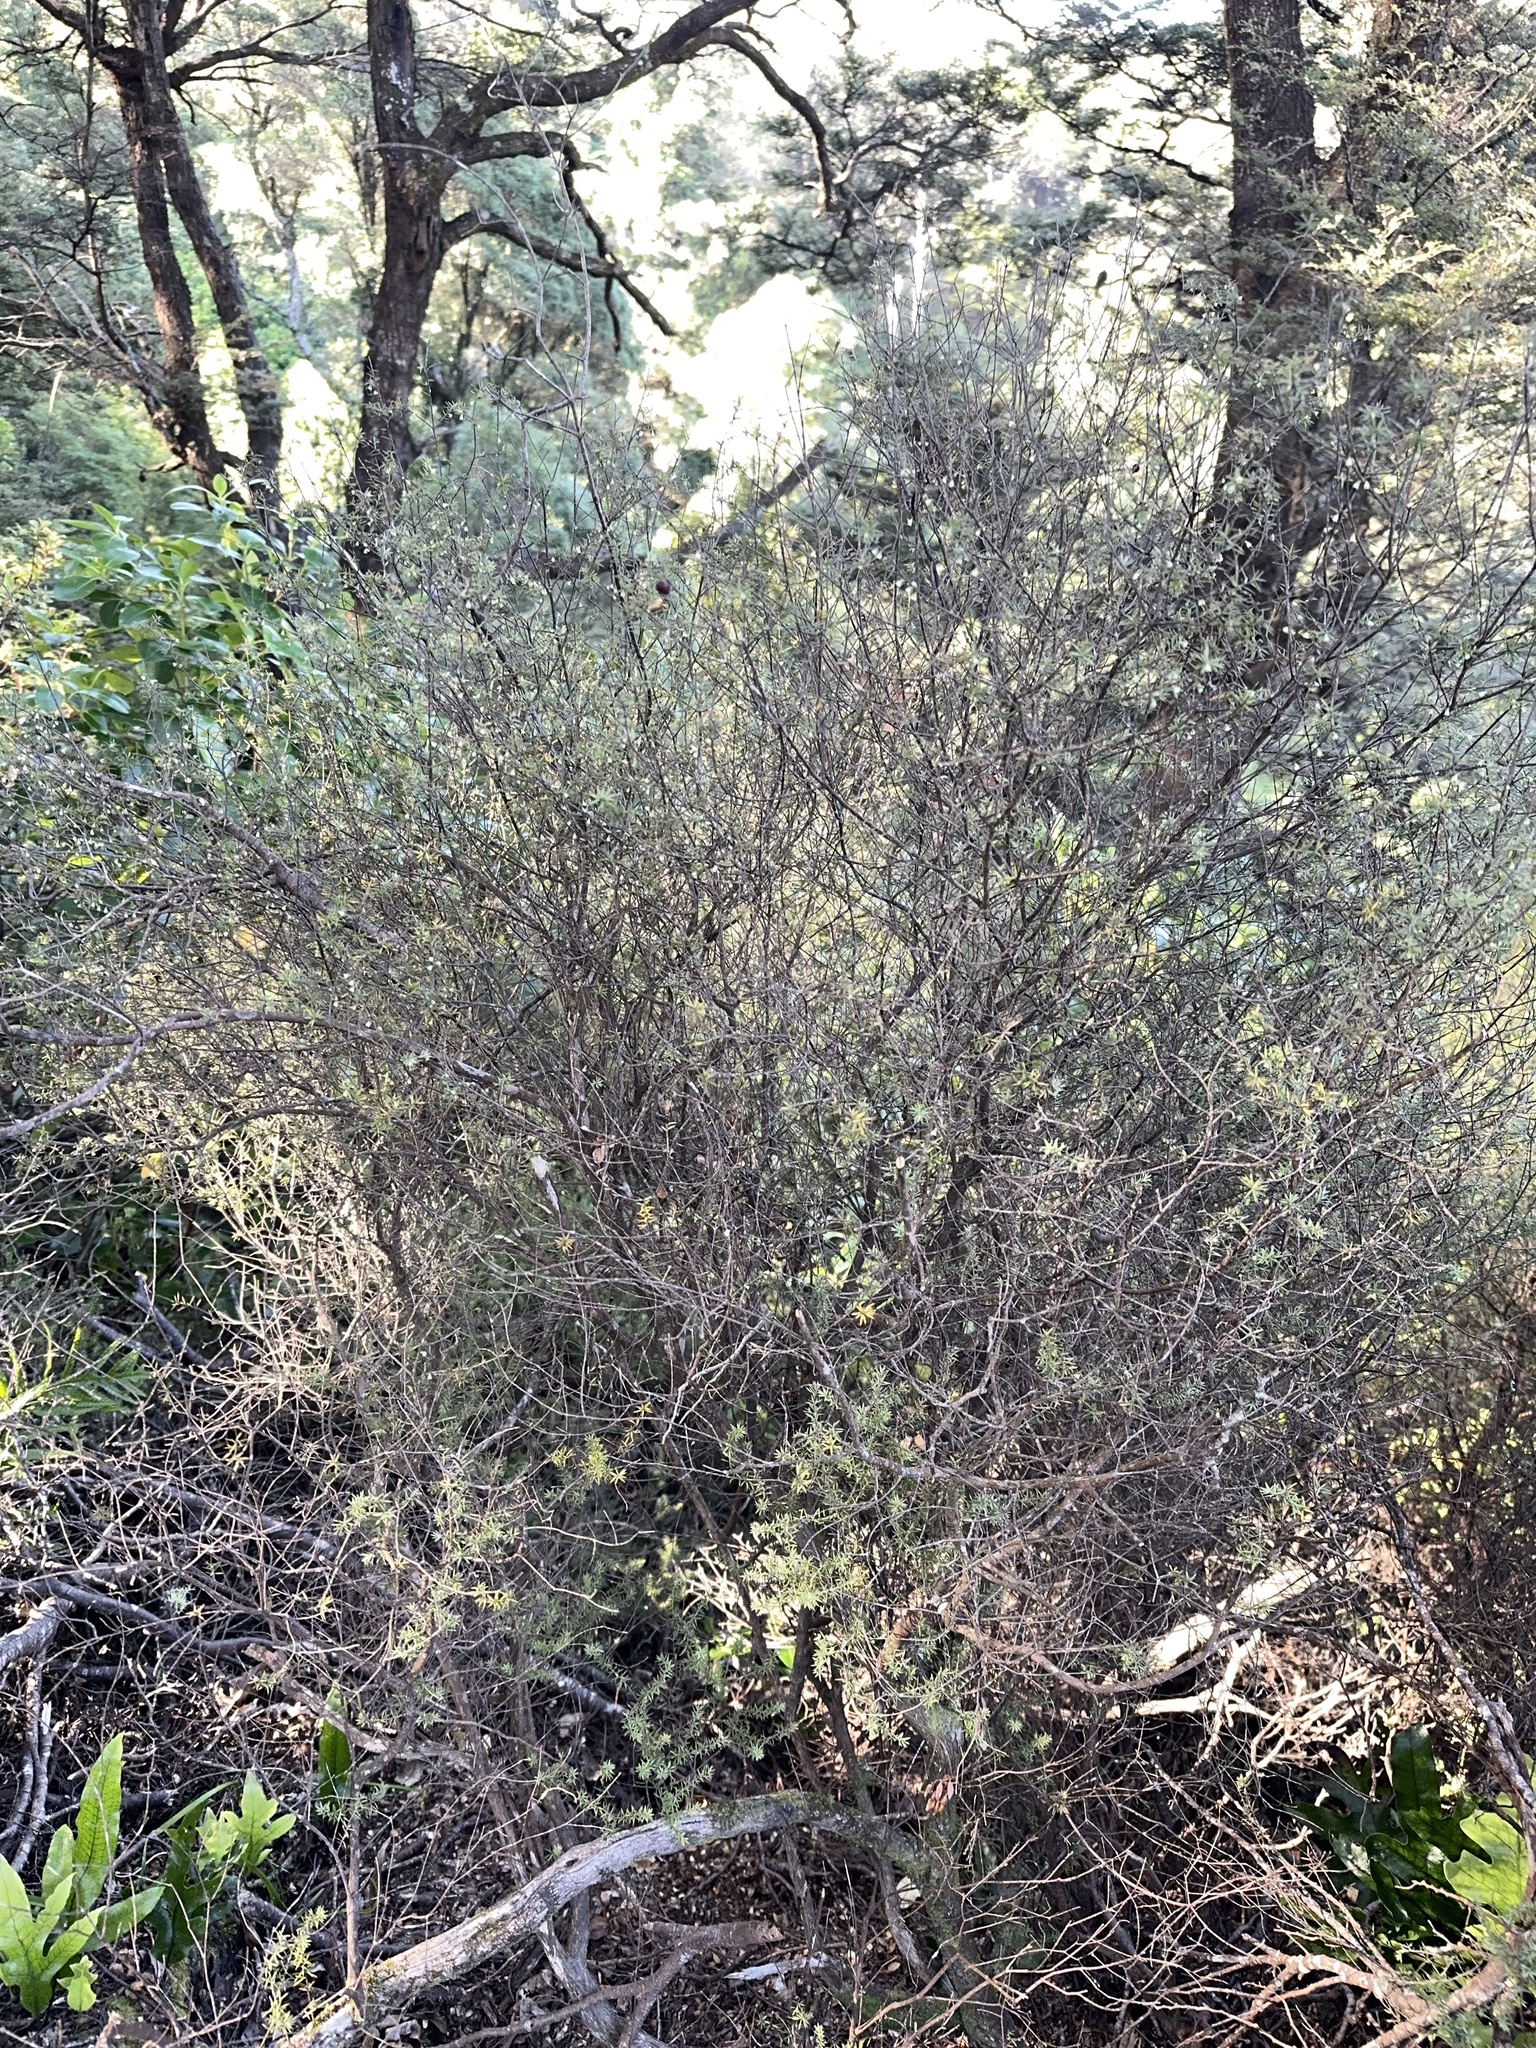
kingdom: Plantae
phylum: Tracheophyta
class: Magnoliopsida
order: Ericales
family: Ericaceae
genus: Leptecophylla
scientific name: Leptecophylla juniperina
